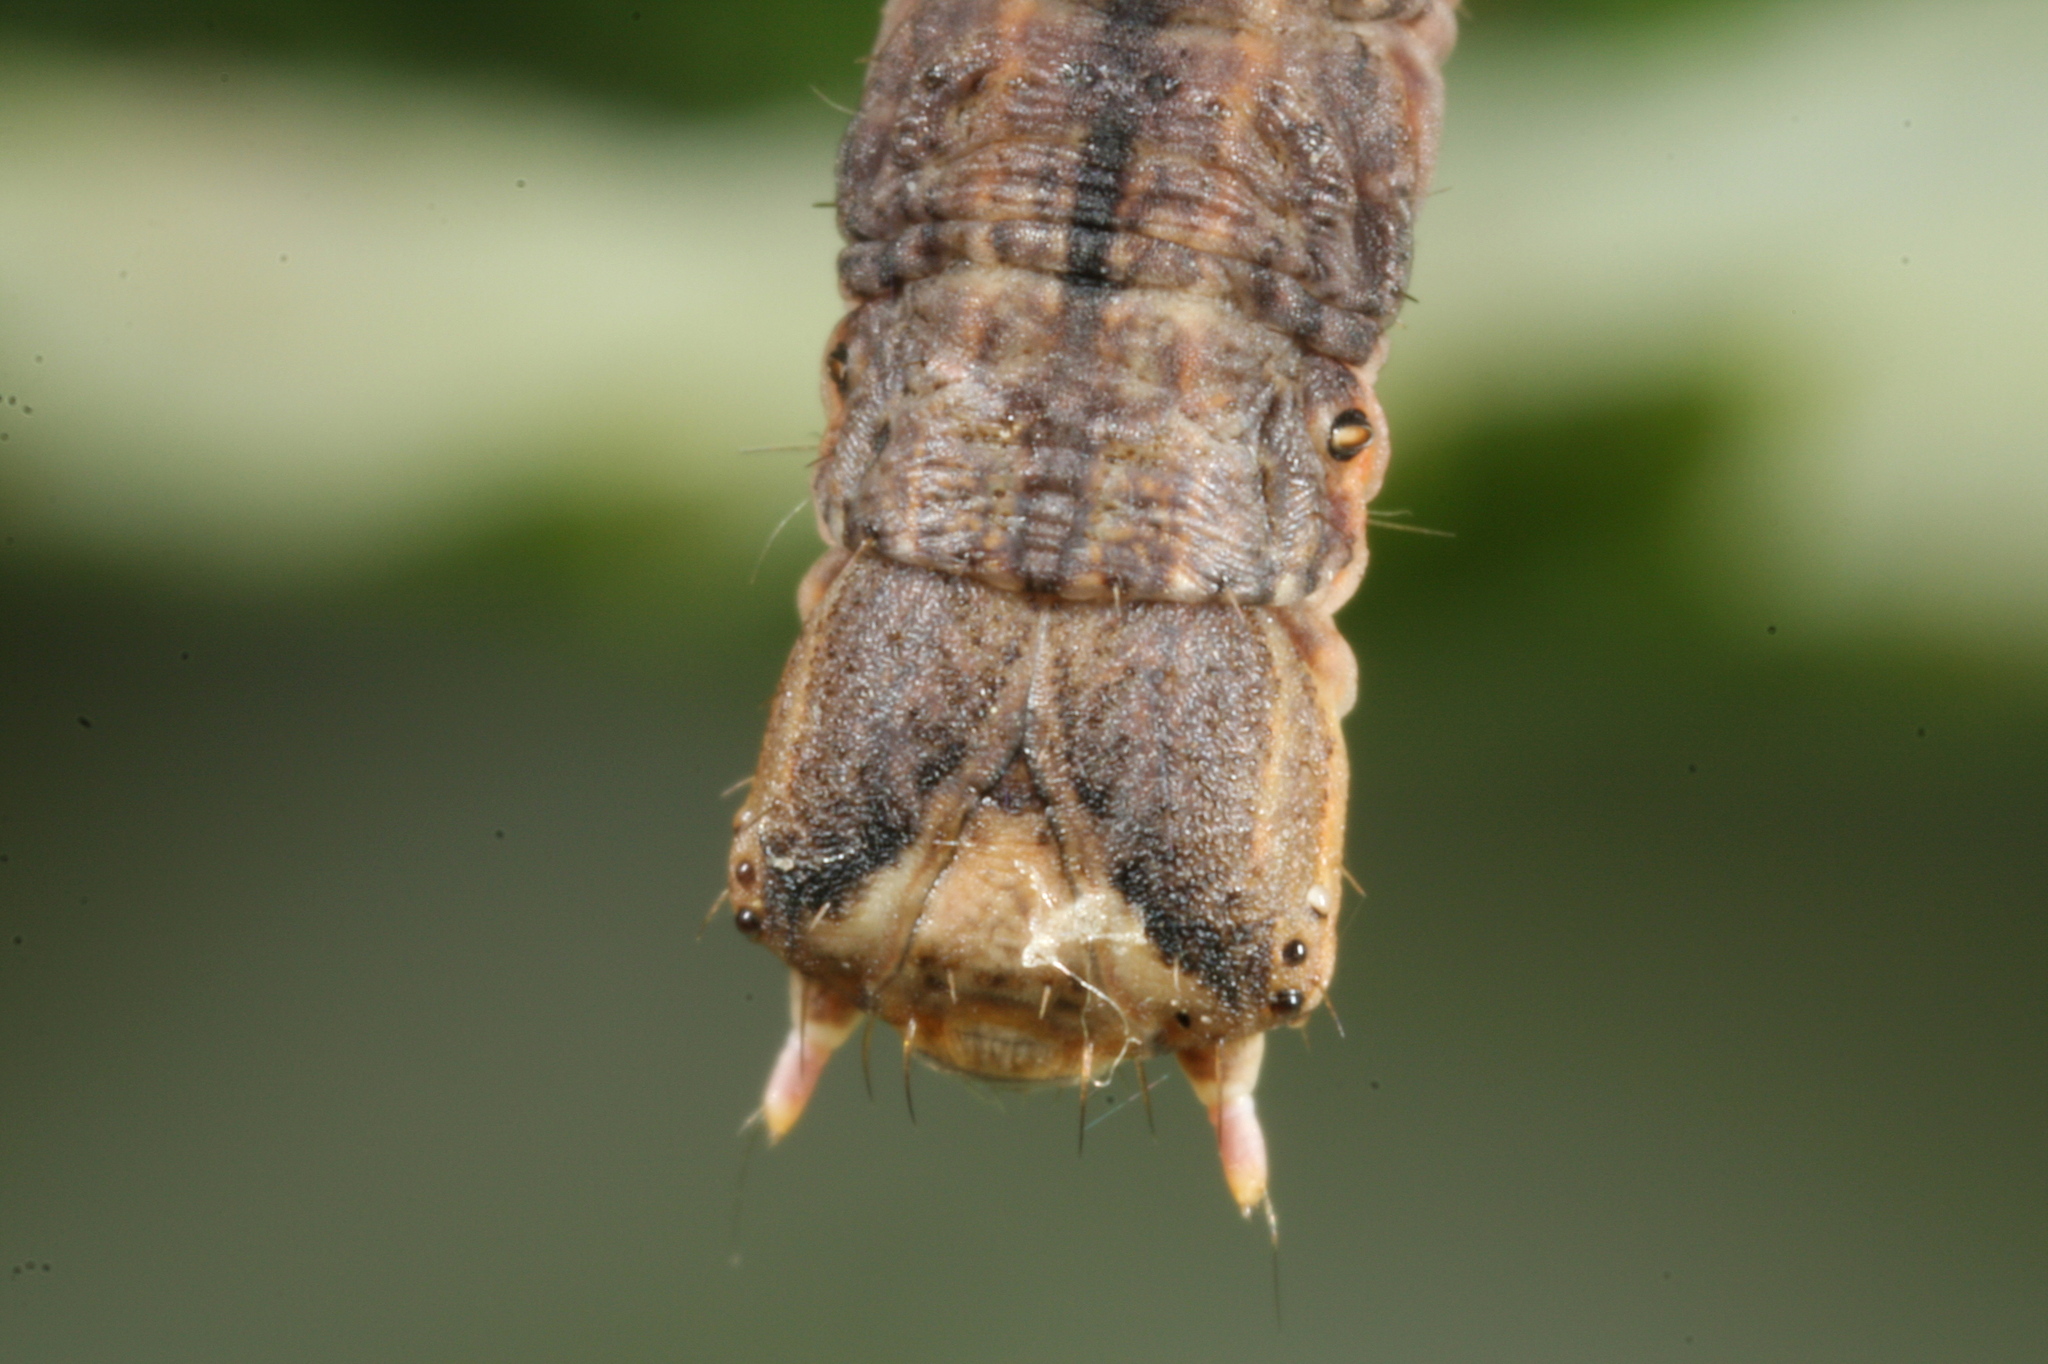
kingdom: Animalia
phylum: Arthropoda
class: Insecta
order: Lepidoptera
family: Geometridae
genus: Angerona
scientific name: Angerona prunaria
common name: Orange moth
